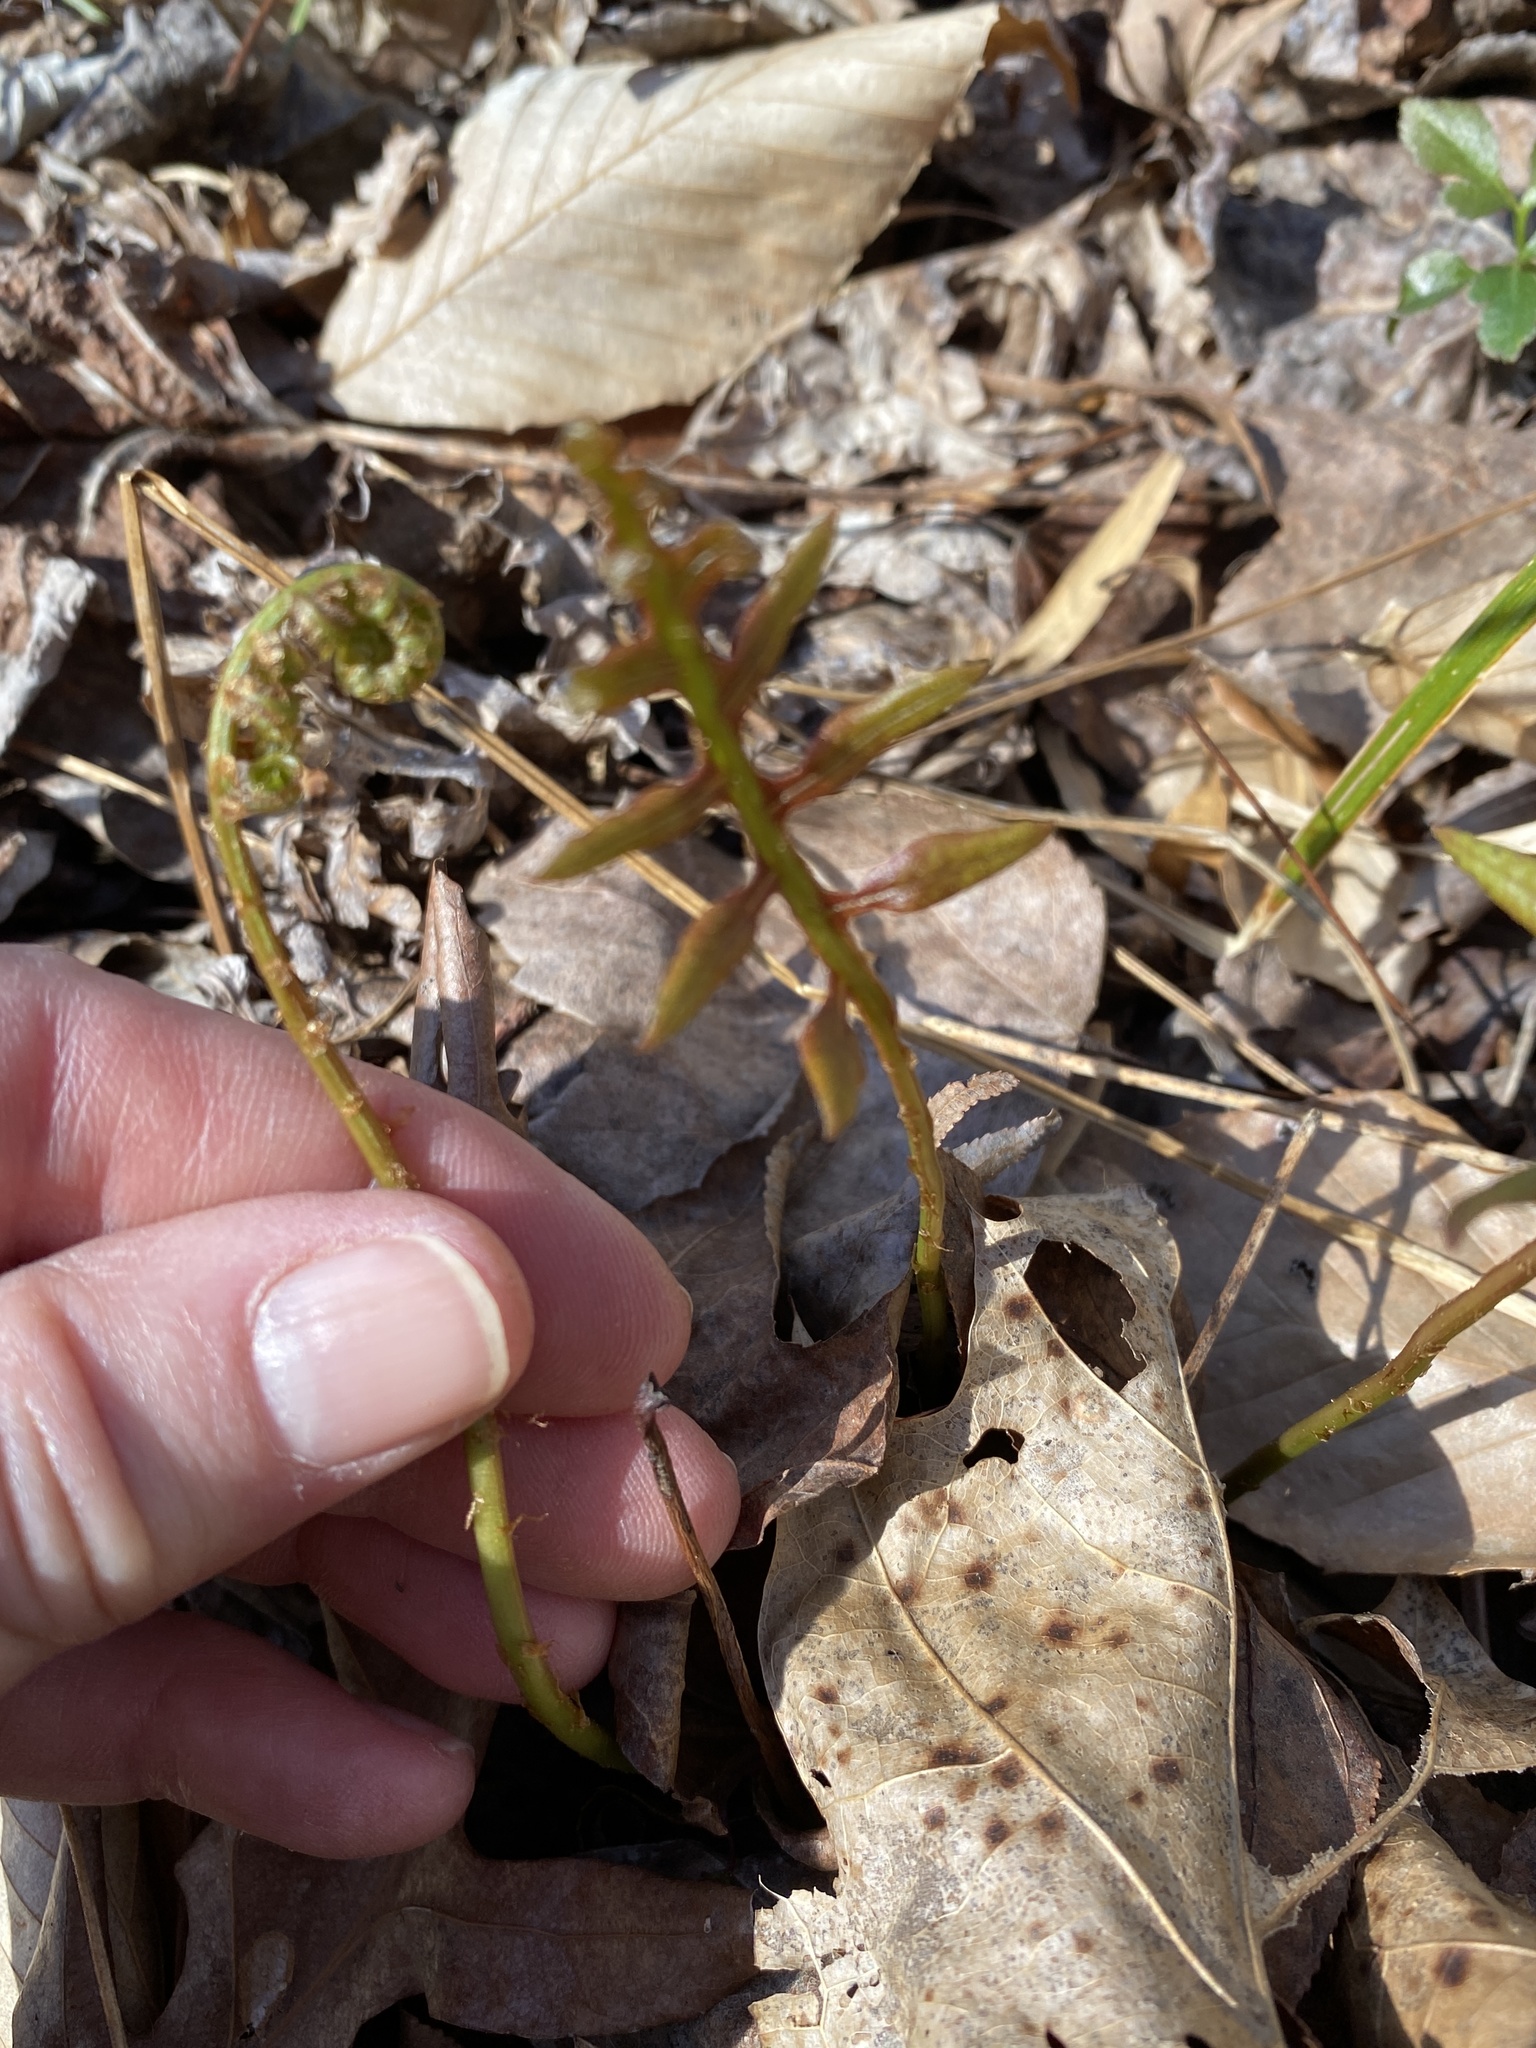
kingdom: Plantae
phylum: Tracheophyta
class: Polypodiopsida
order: Polypodiales
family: Blechnaceae
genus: Lorinseria
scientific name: Lorinseria areolata
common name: Dwarf chain fern
